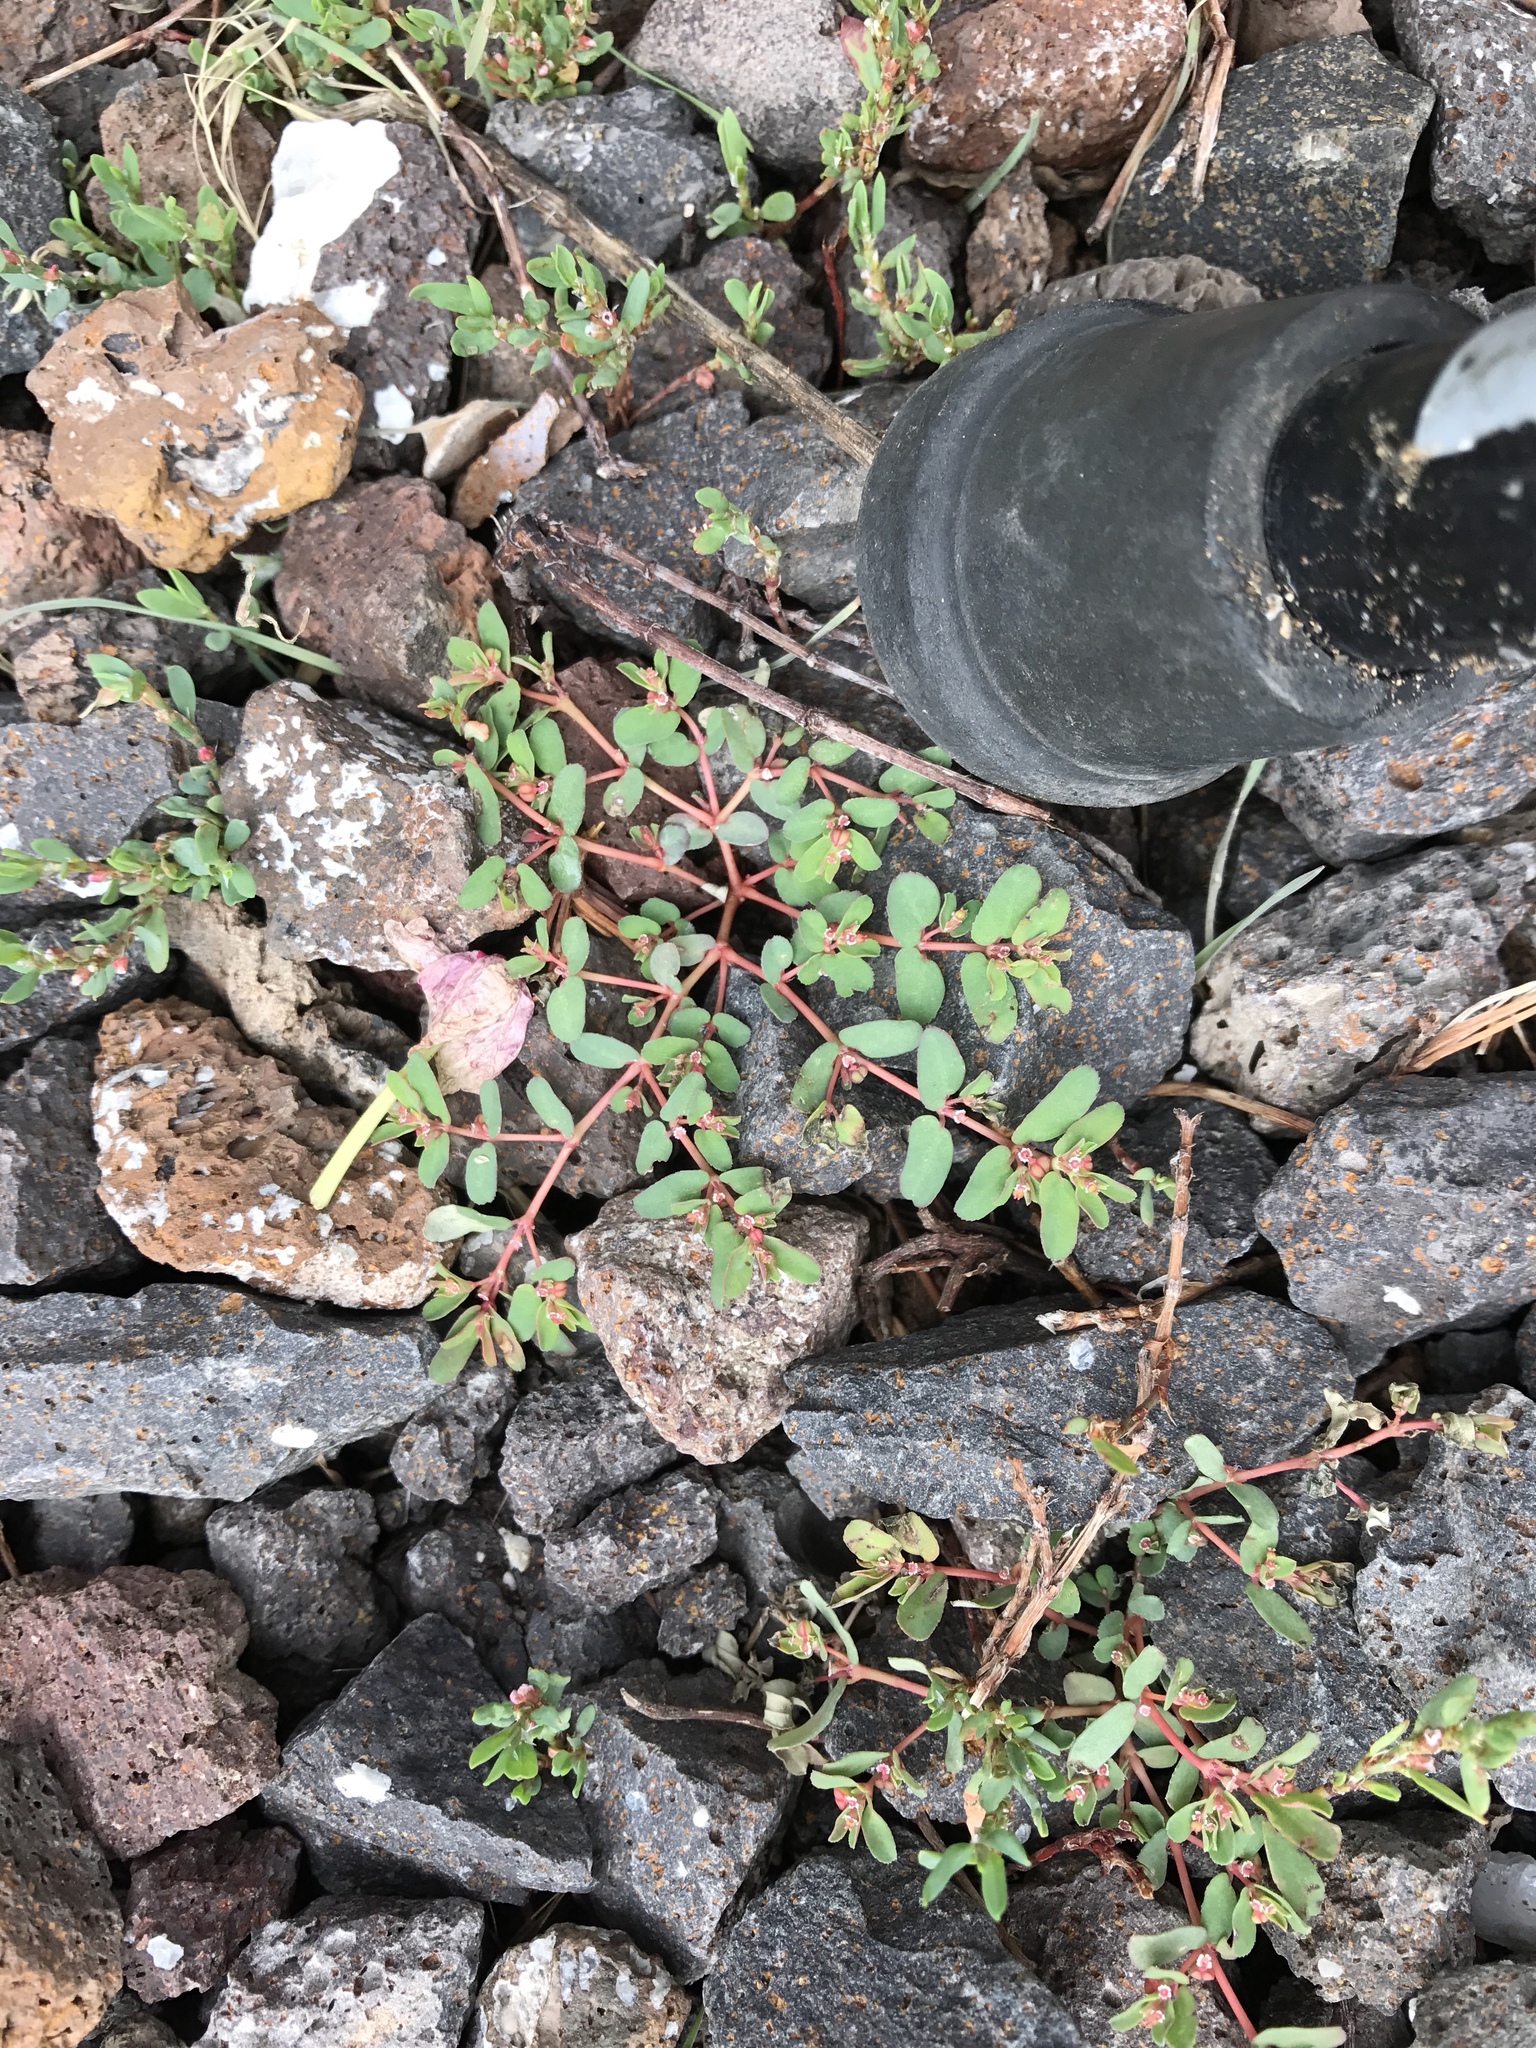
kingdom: Plantae
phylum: Tracheophyta
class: Magnoliopsida
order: Malpighiales
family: Euphorbiaceae
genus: Euphorbia
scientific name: Euphorbia glyptosperma
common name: Corrugate-seeded spurge
